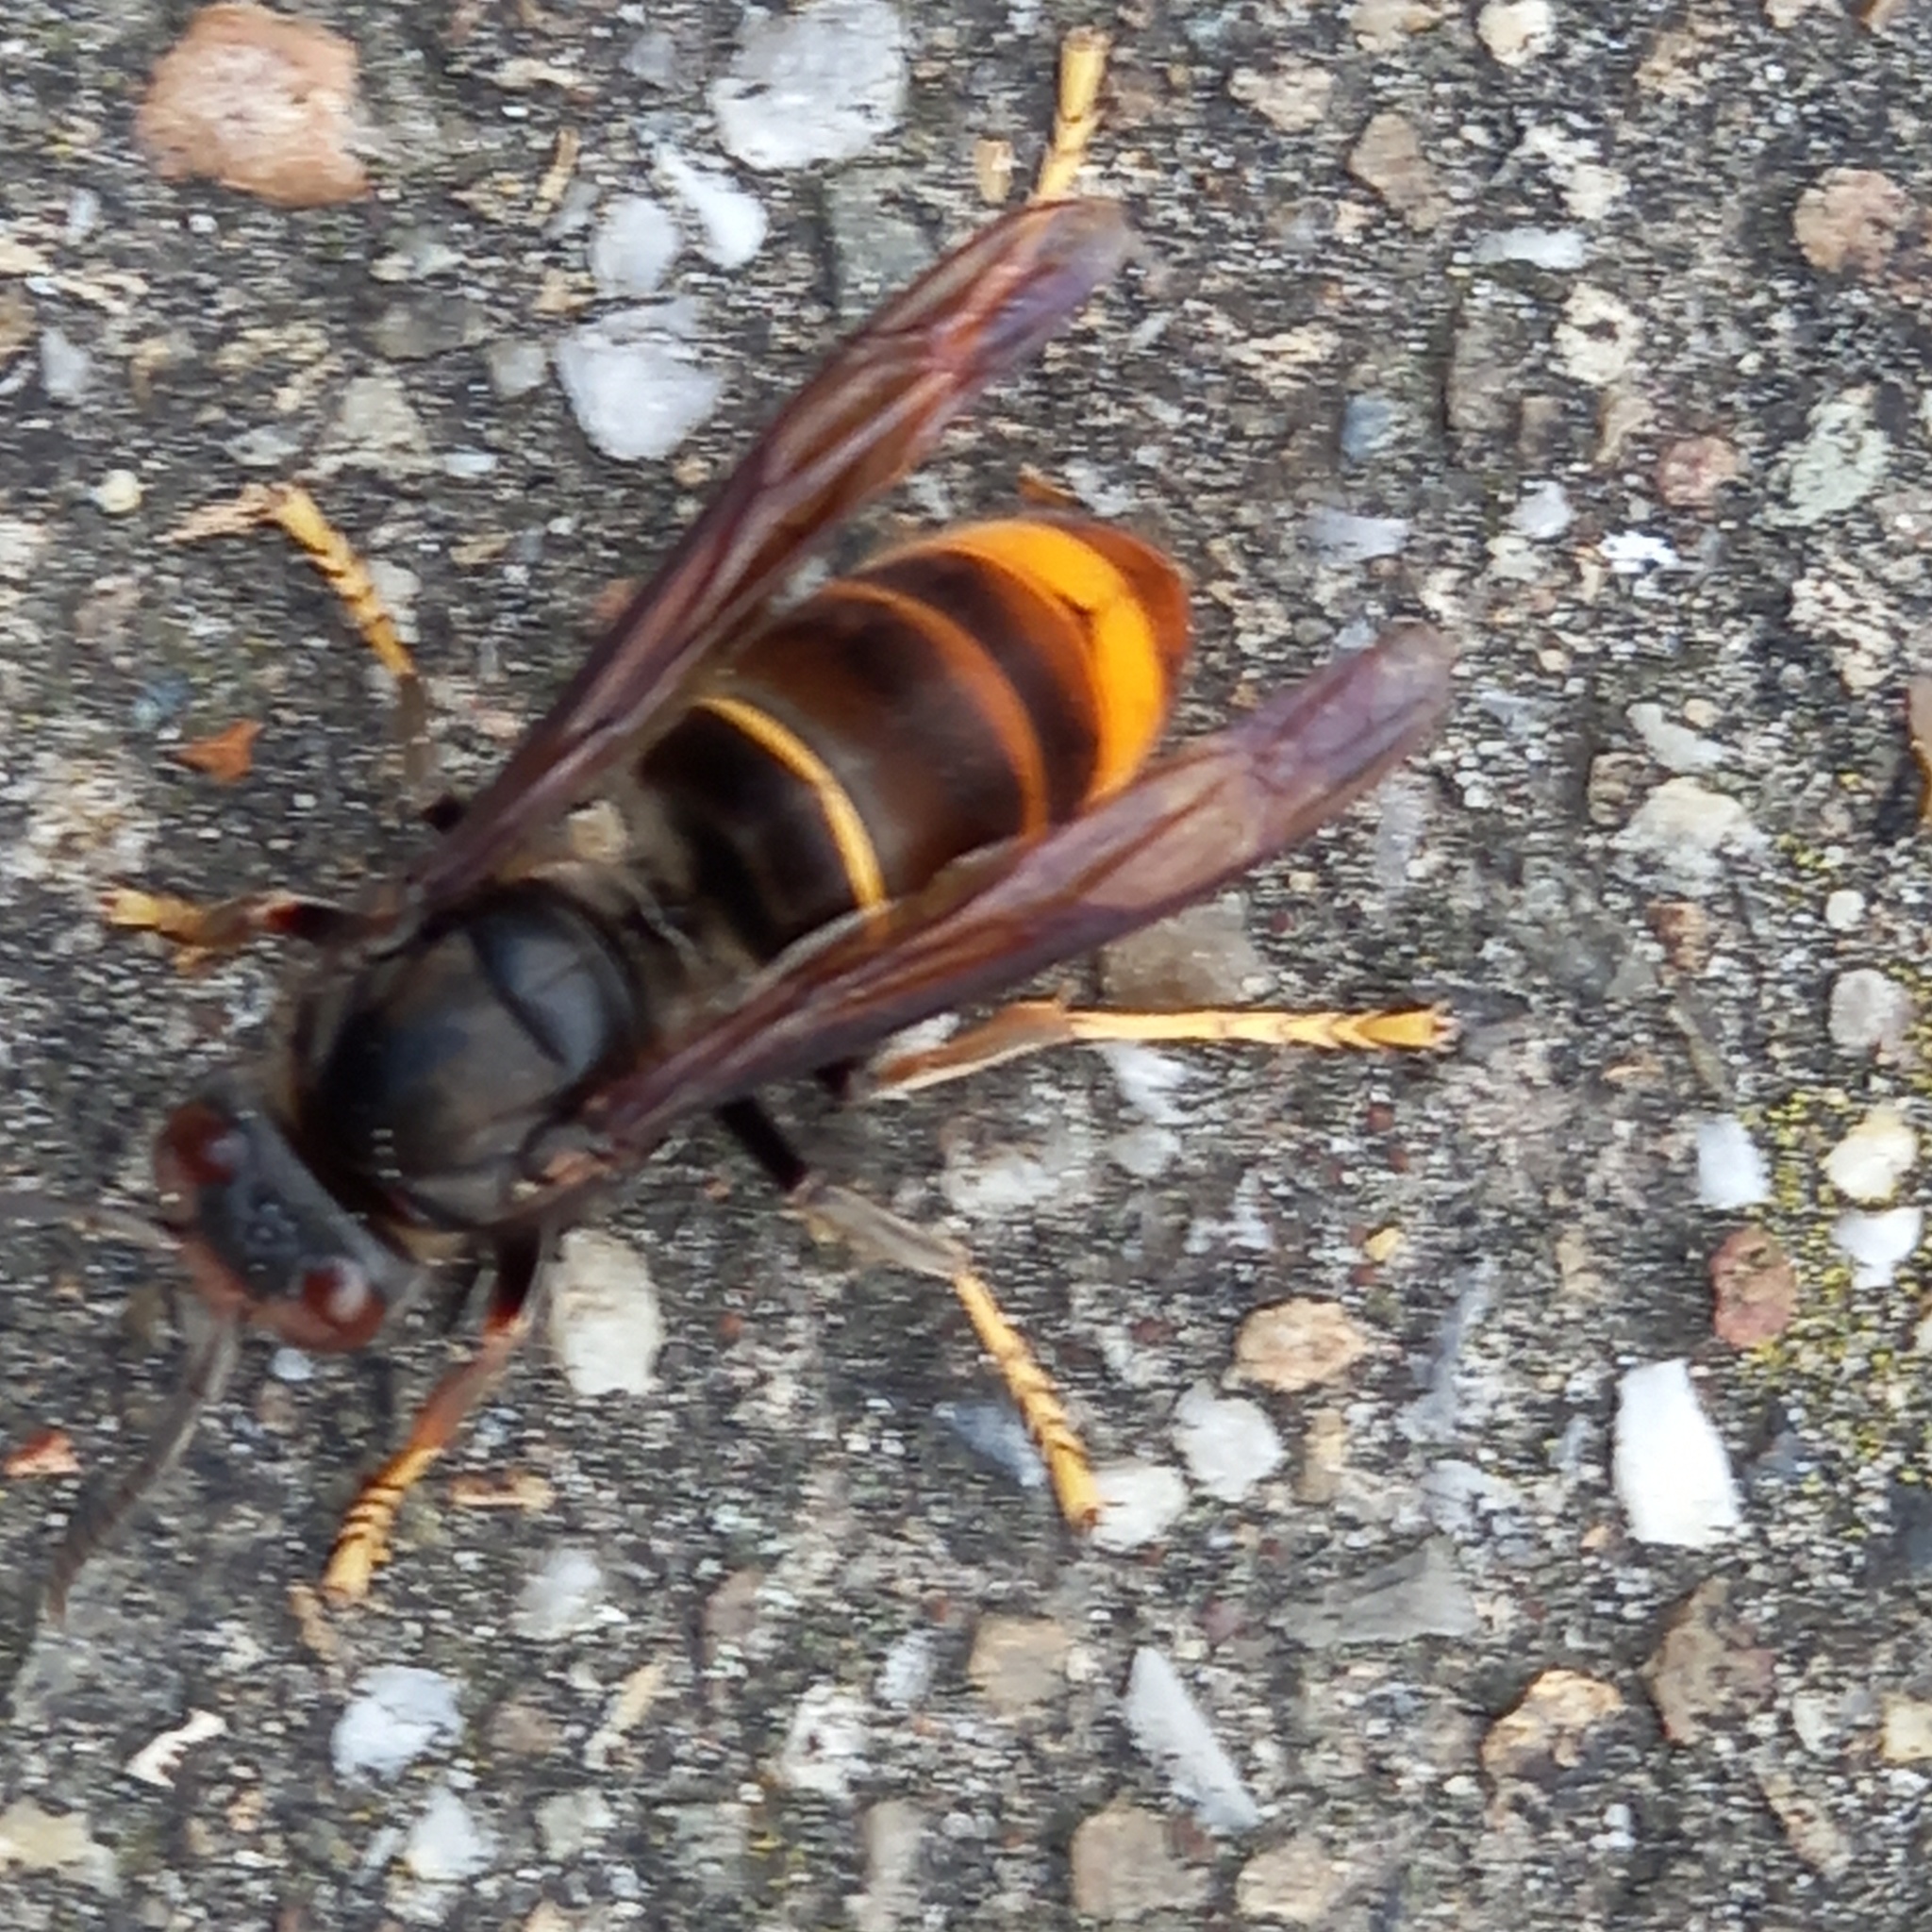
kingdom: Animalia
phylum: Arthropoda
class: Insecta
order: Hymenoptera
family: Vespidae
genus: Vespa
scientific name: Vespa velutina
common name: Asian hornet
